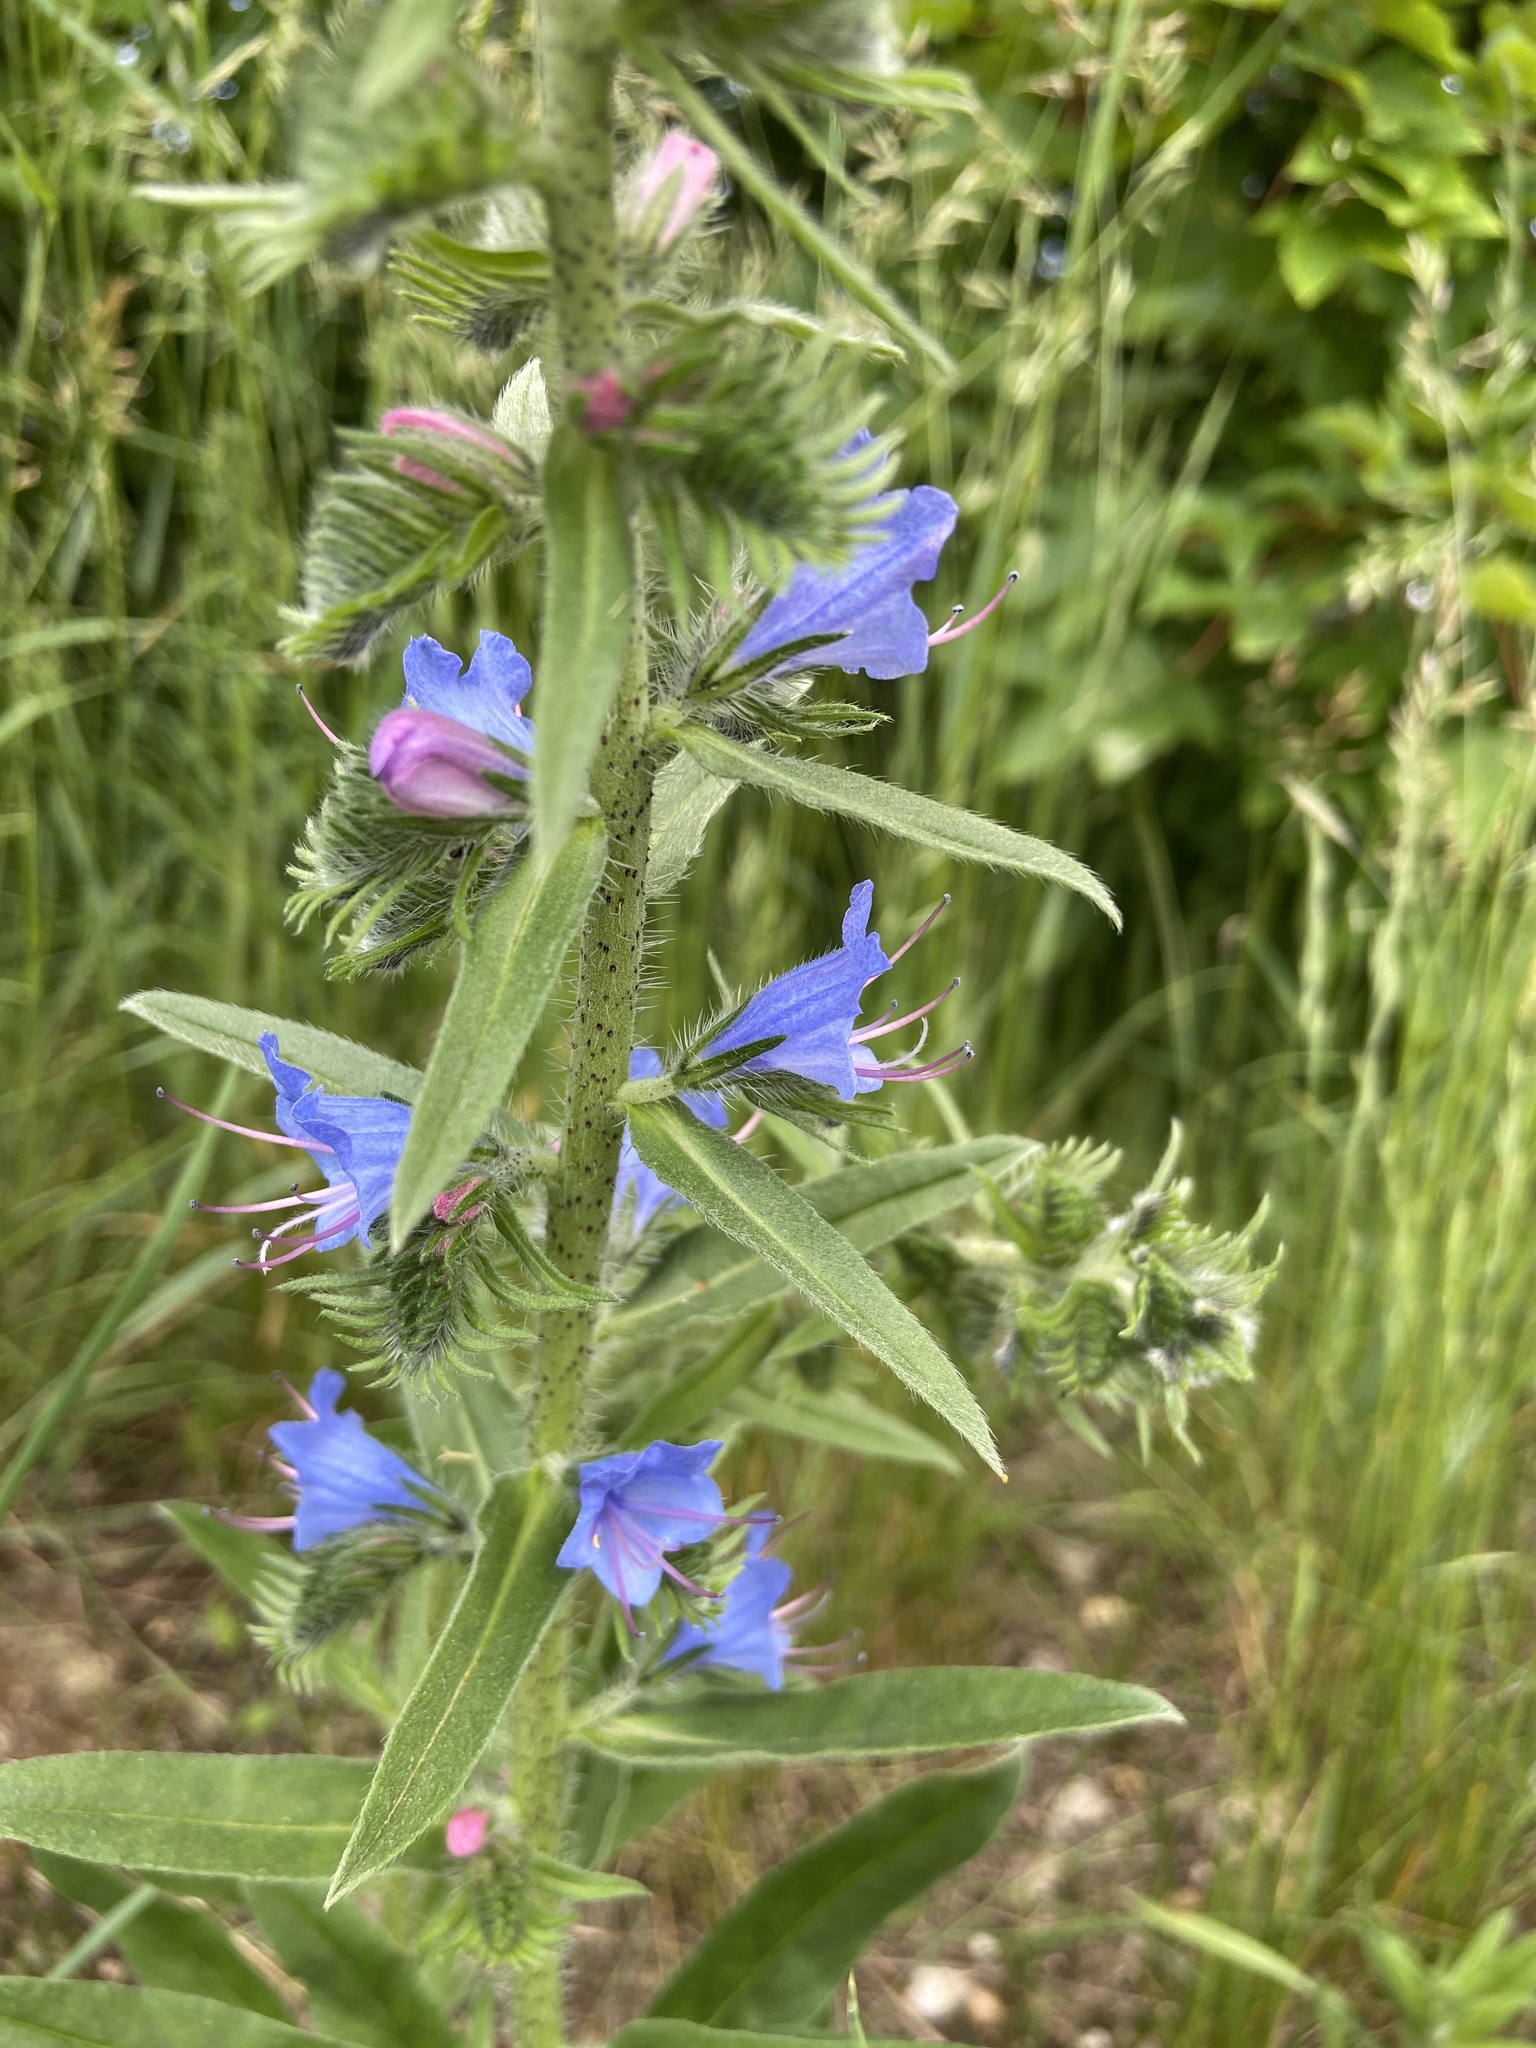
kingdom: Plantae
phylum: Tracheophyta
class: Magnoliopsida
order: Boraginales
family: Boraginaceae
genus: Echium
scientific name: Echium vulgare
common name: Common viper's bugloss
